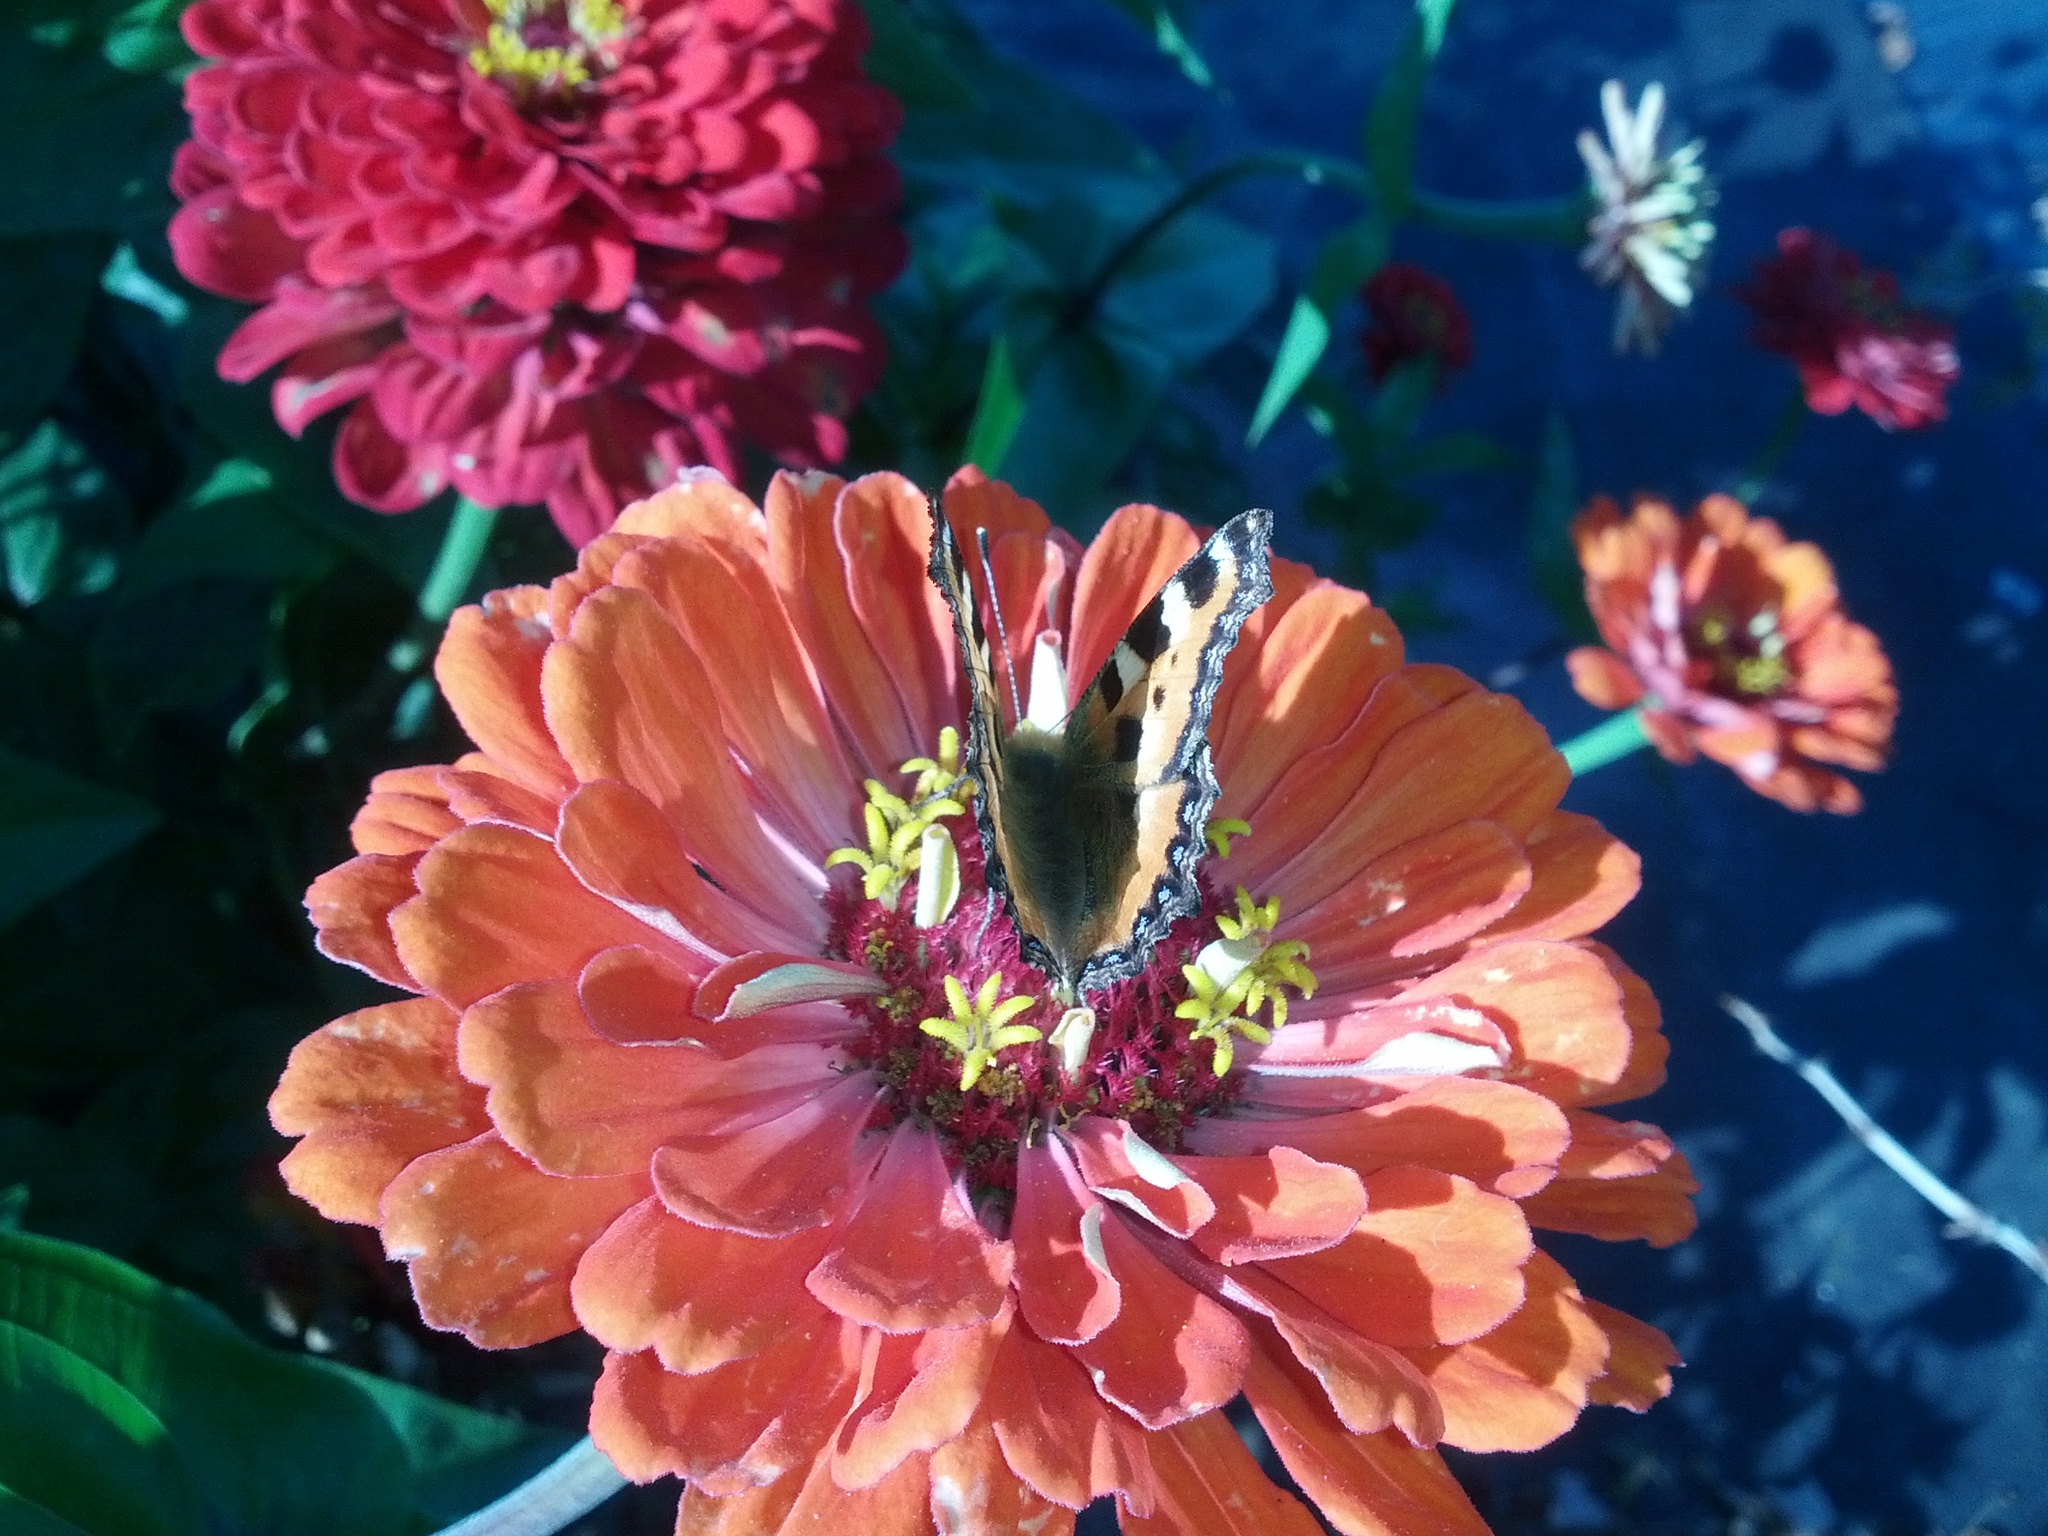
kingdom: Animalia
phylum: Arthropoda
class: Insecta
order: Lepidoptera
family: Nymphalidae
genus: Aglais
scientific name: Aglais urticae
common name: Small tortoiseshell
